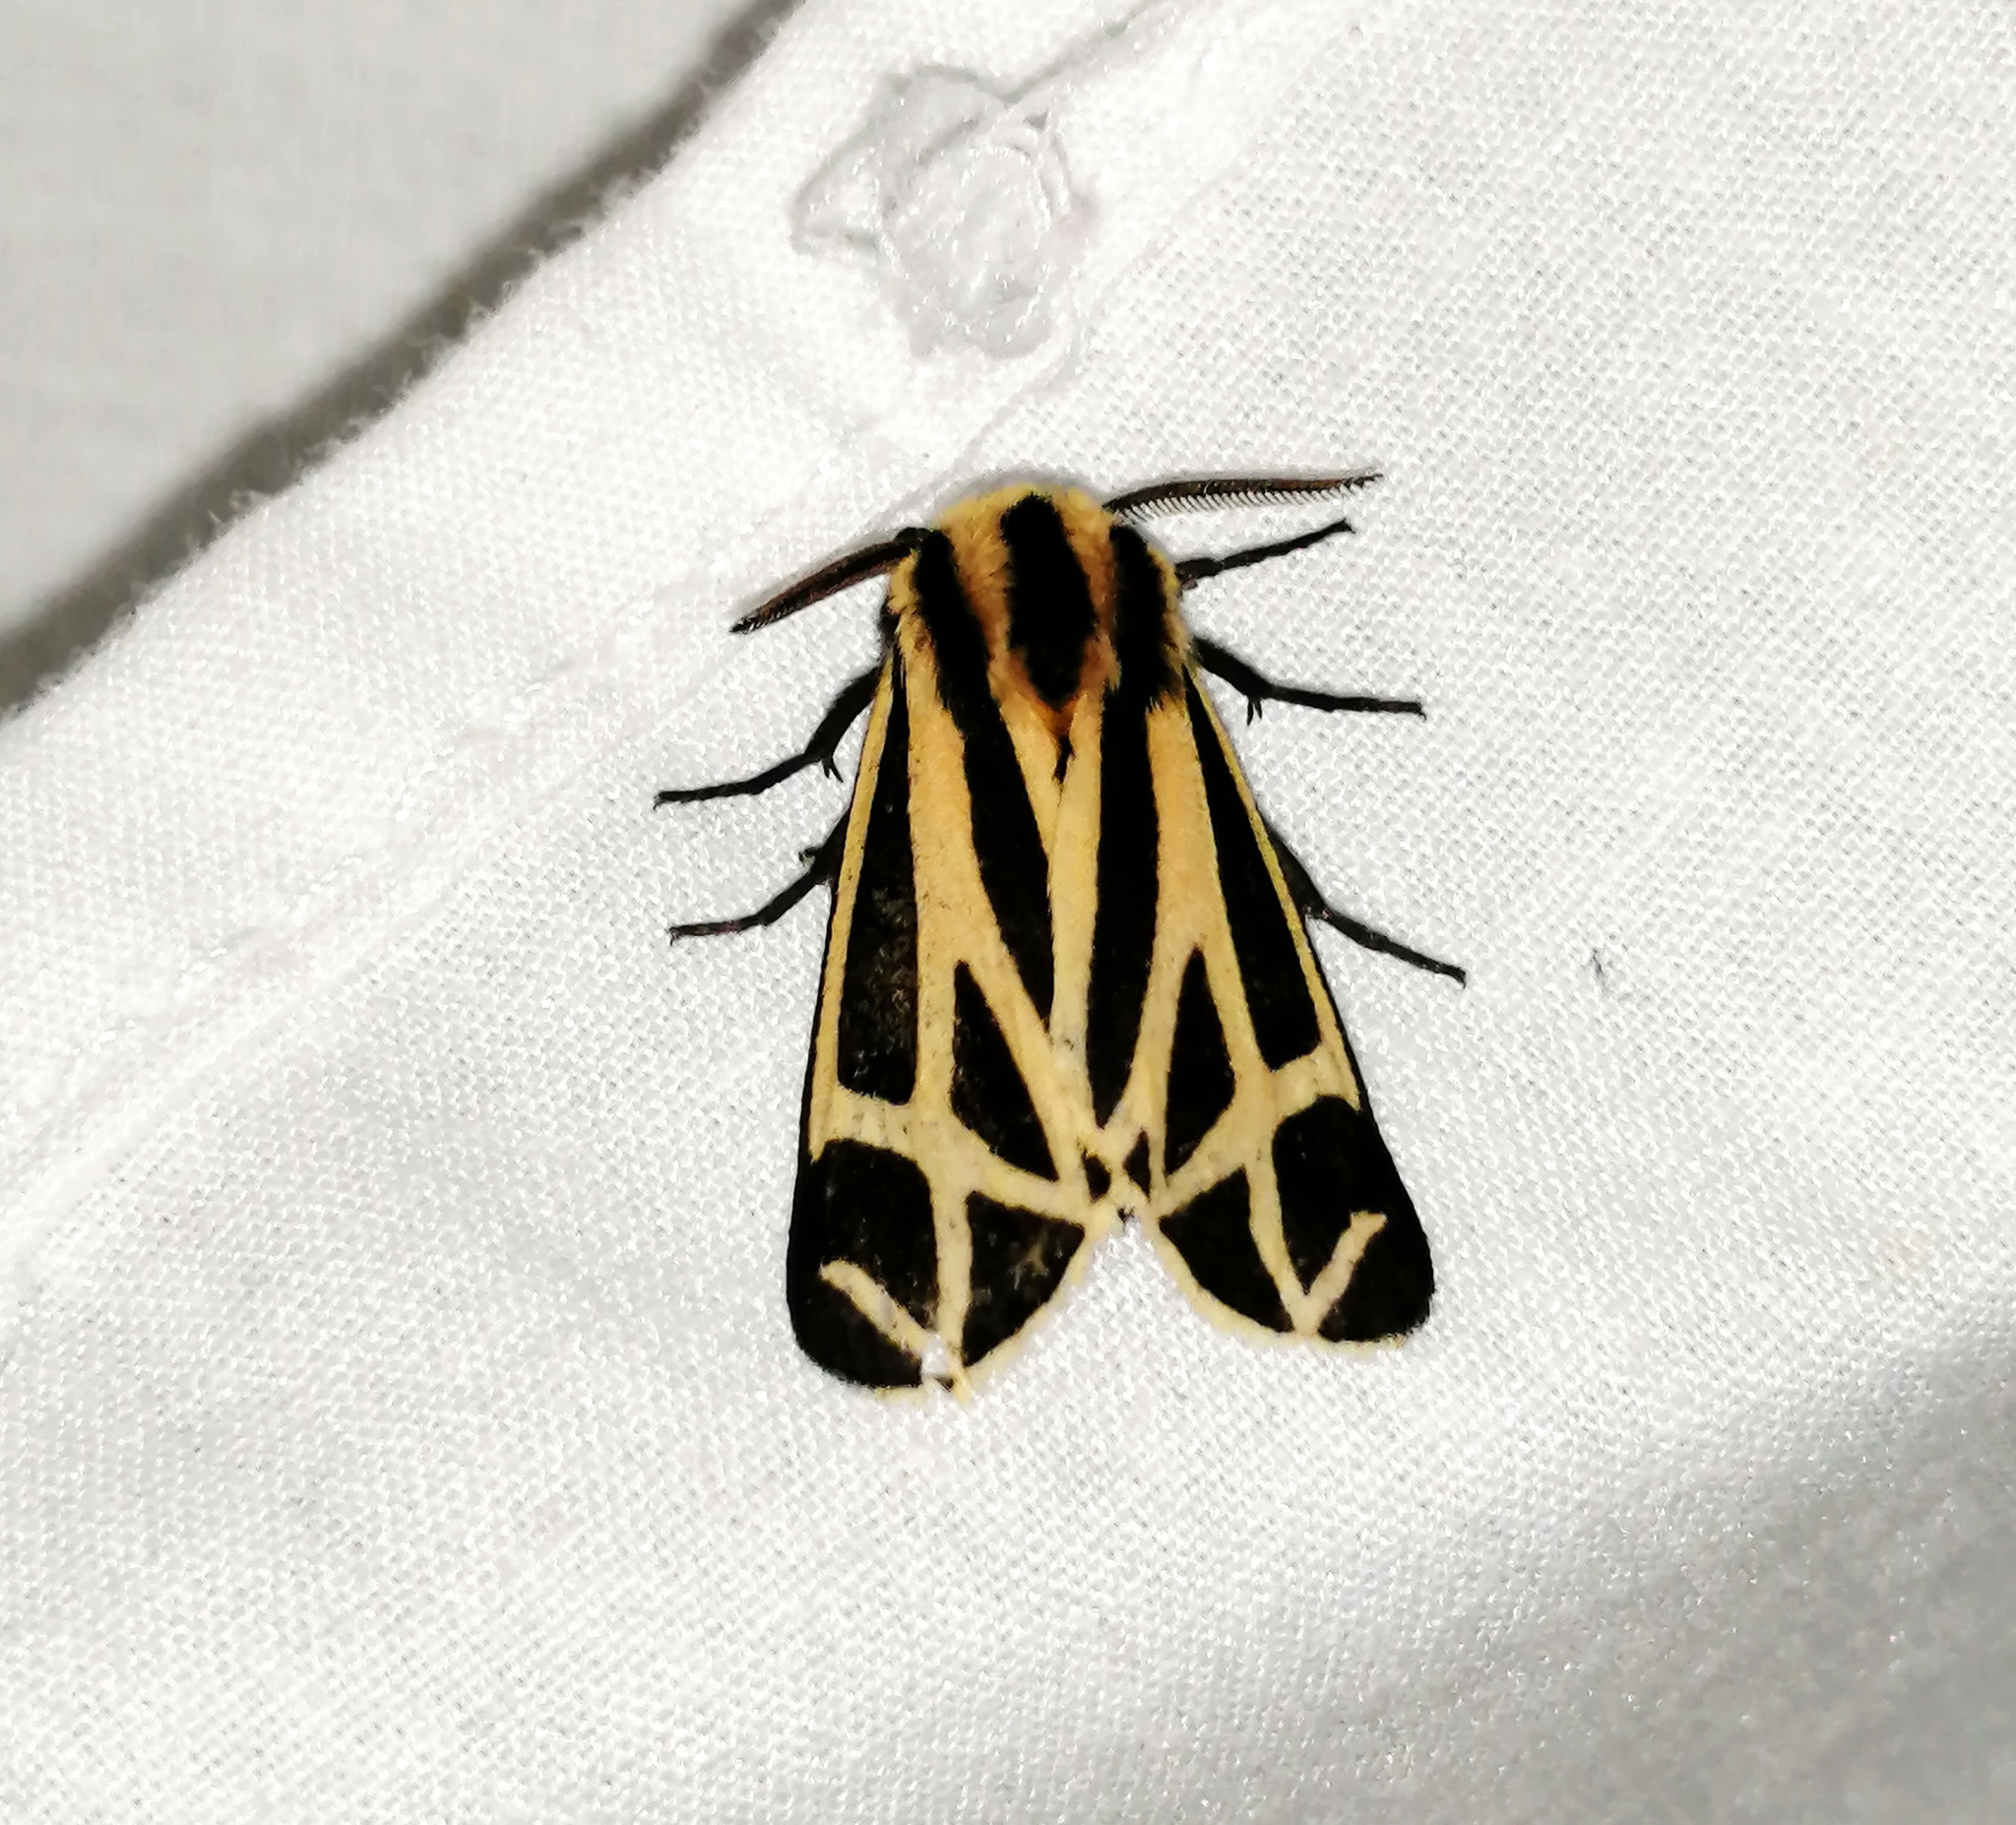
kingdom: Animalia
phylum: Arthropoda
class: Insecta
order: Lepidoptera
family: Erebidae
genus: Apantesis
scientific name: Apantesis phalerata
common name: Harnessed tiger moth
